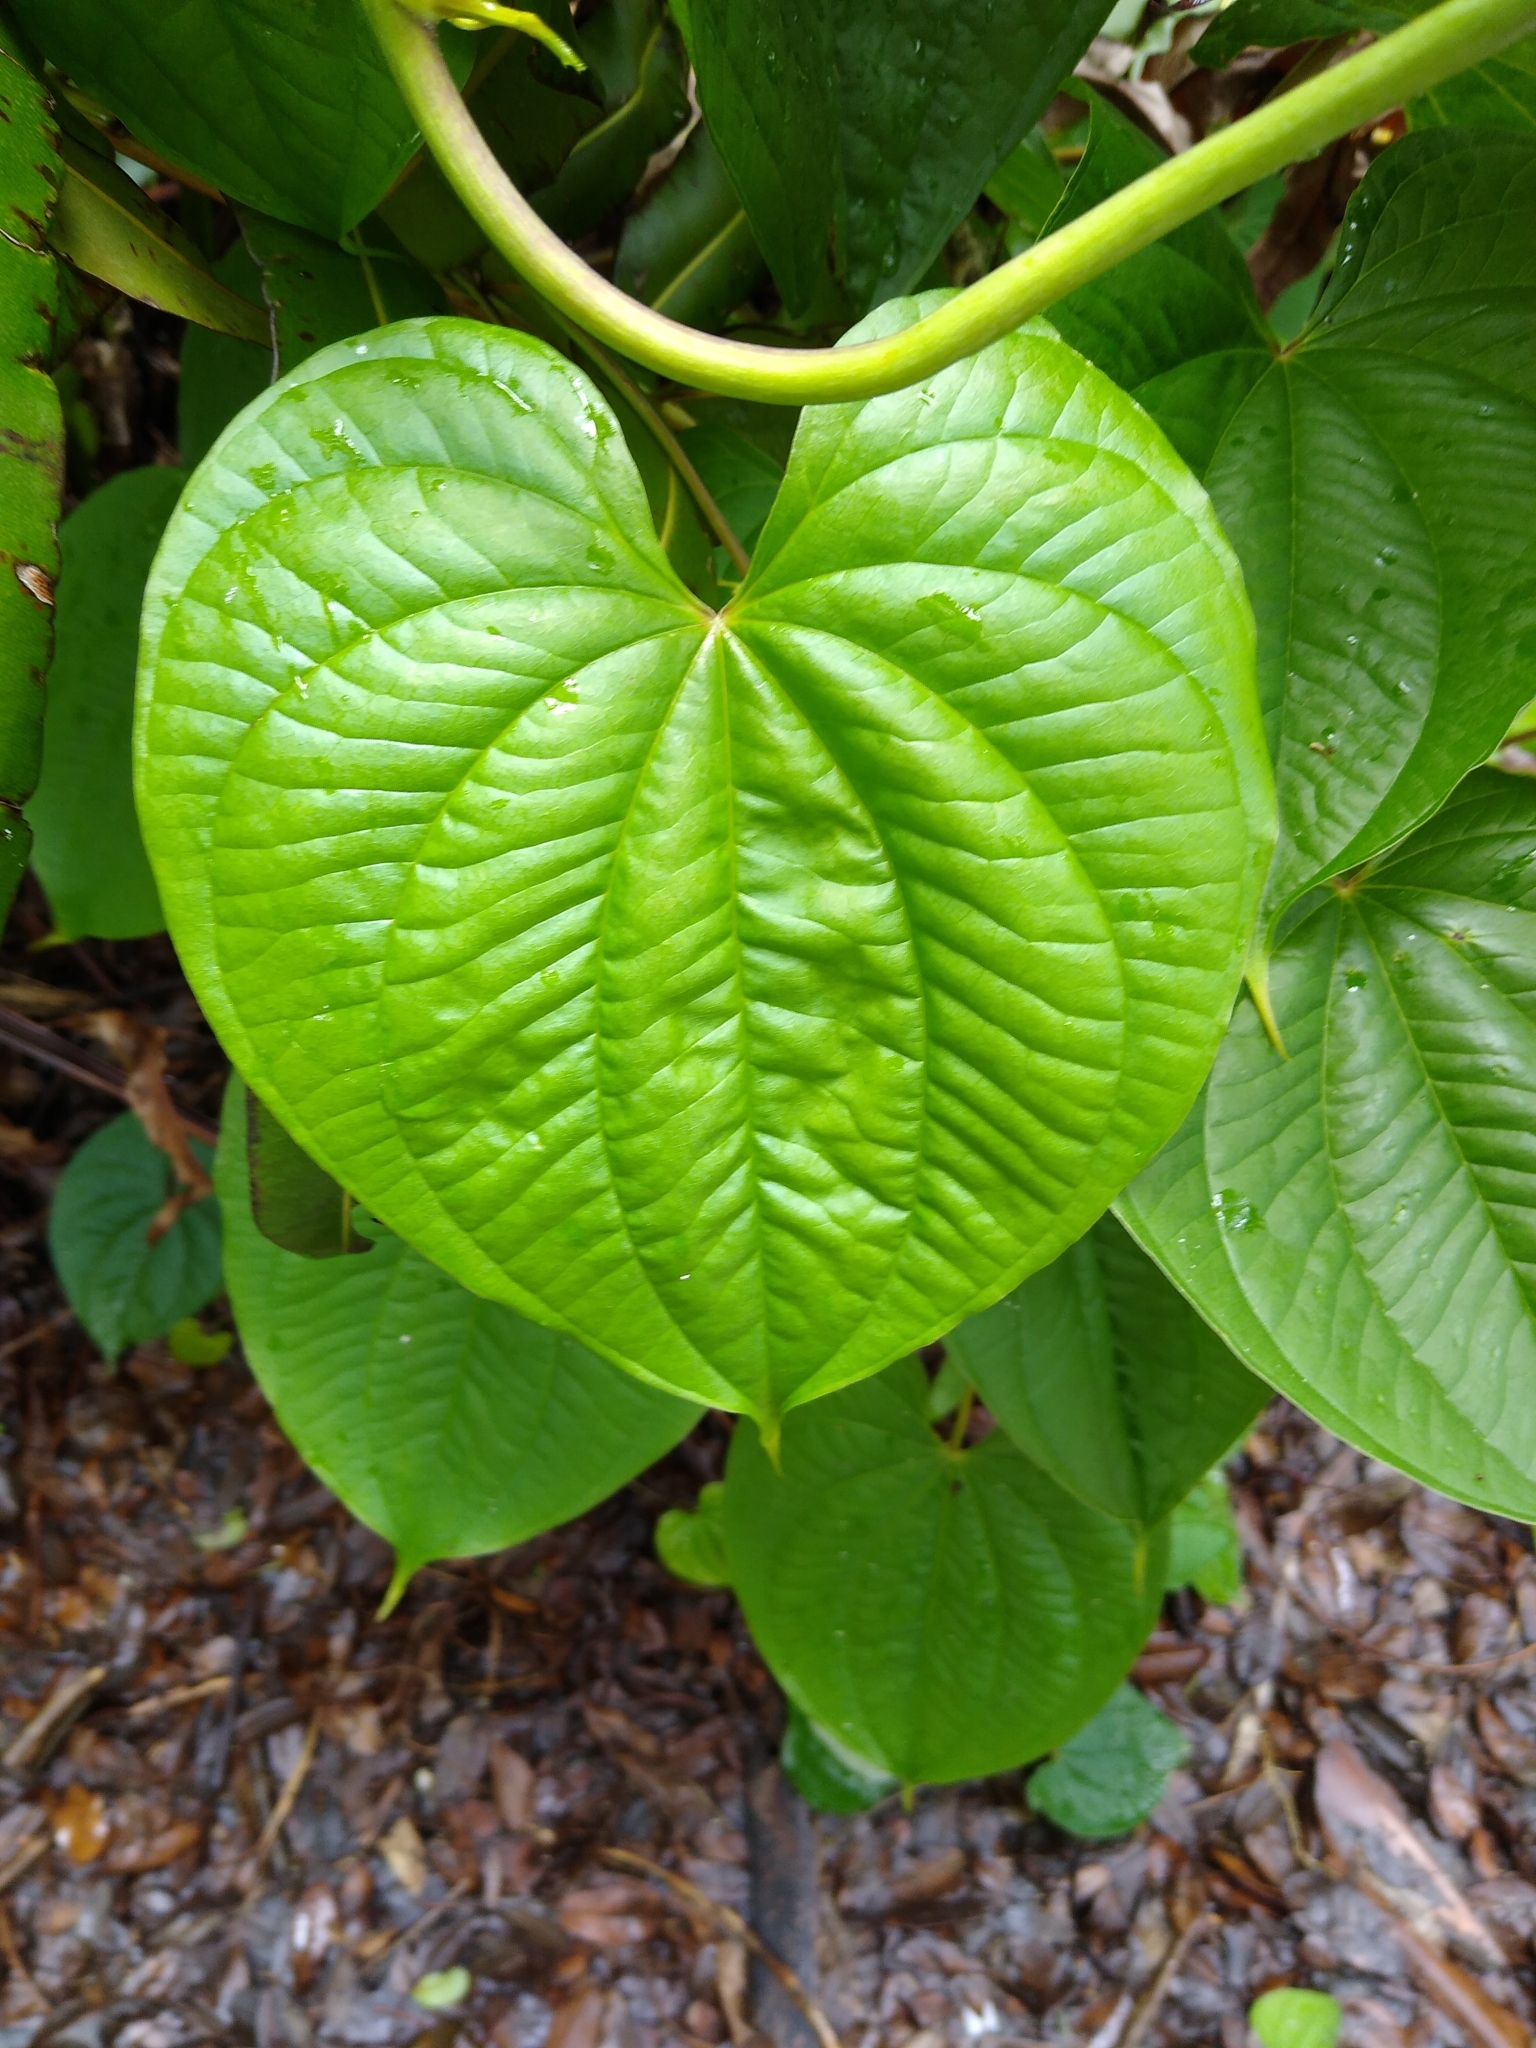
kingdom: Plantae
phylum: Tracheophyta
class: Liliopsida
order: Dioscoreales
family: Dioscoreaceae
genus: Dioscorea
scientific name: Dioscorea bulbifera
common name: Air yam
